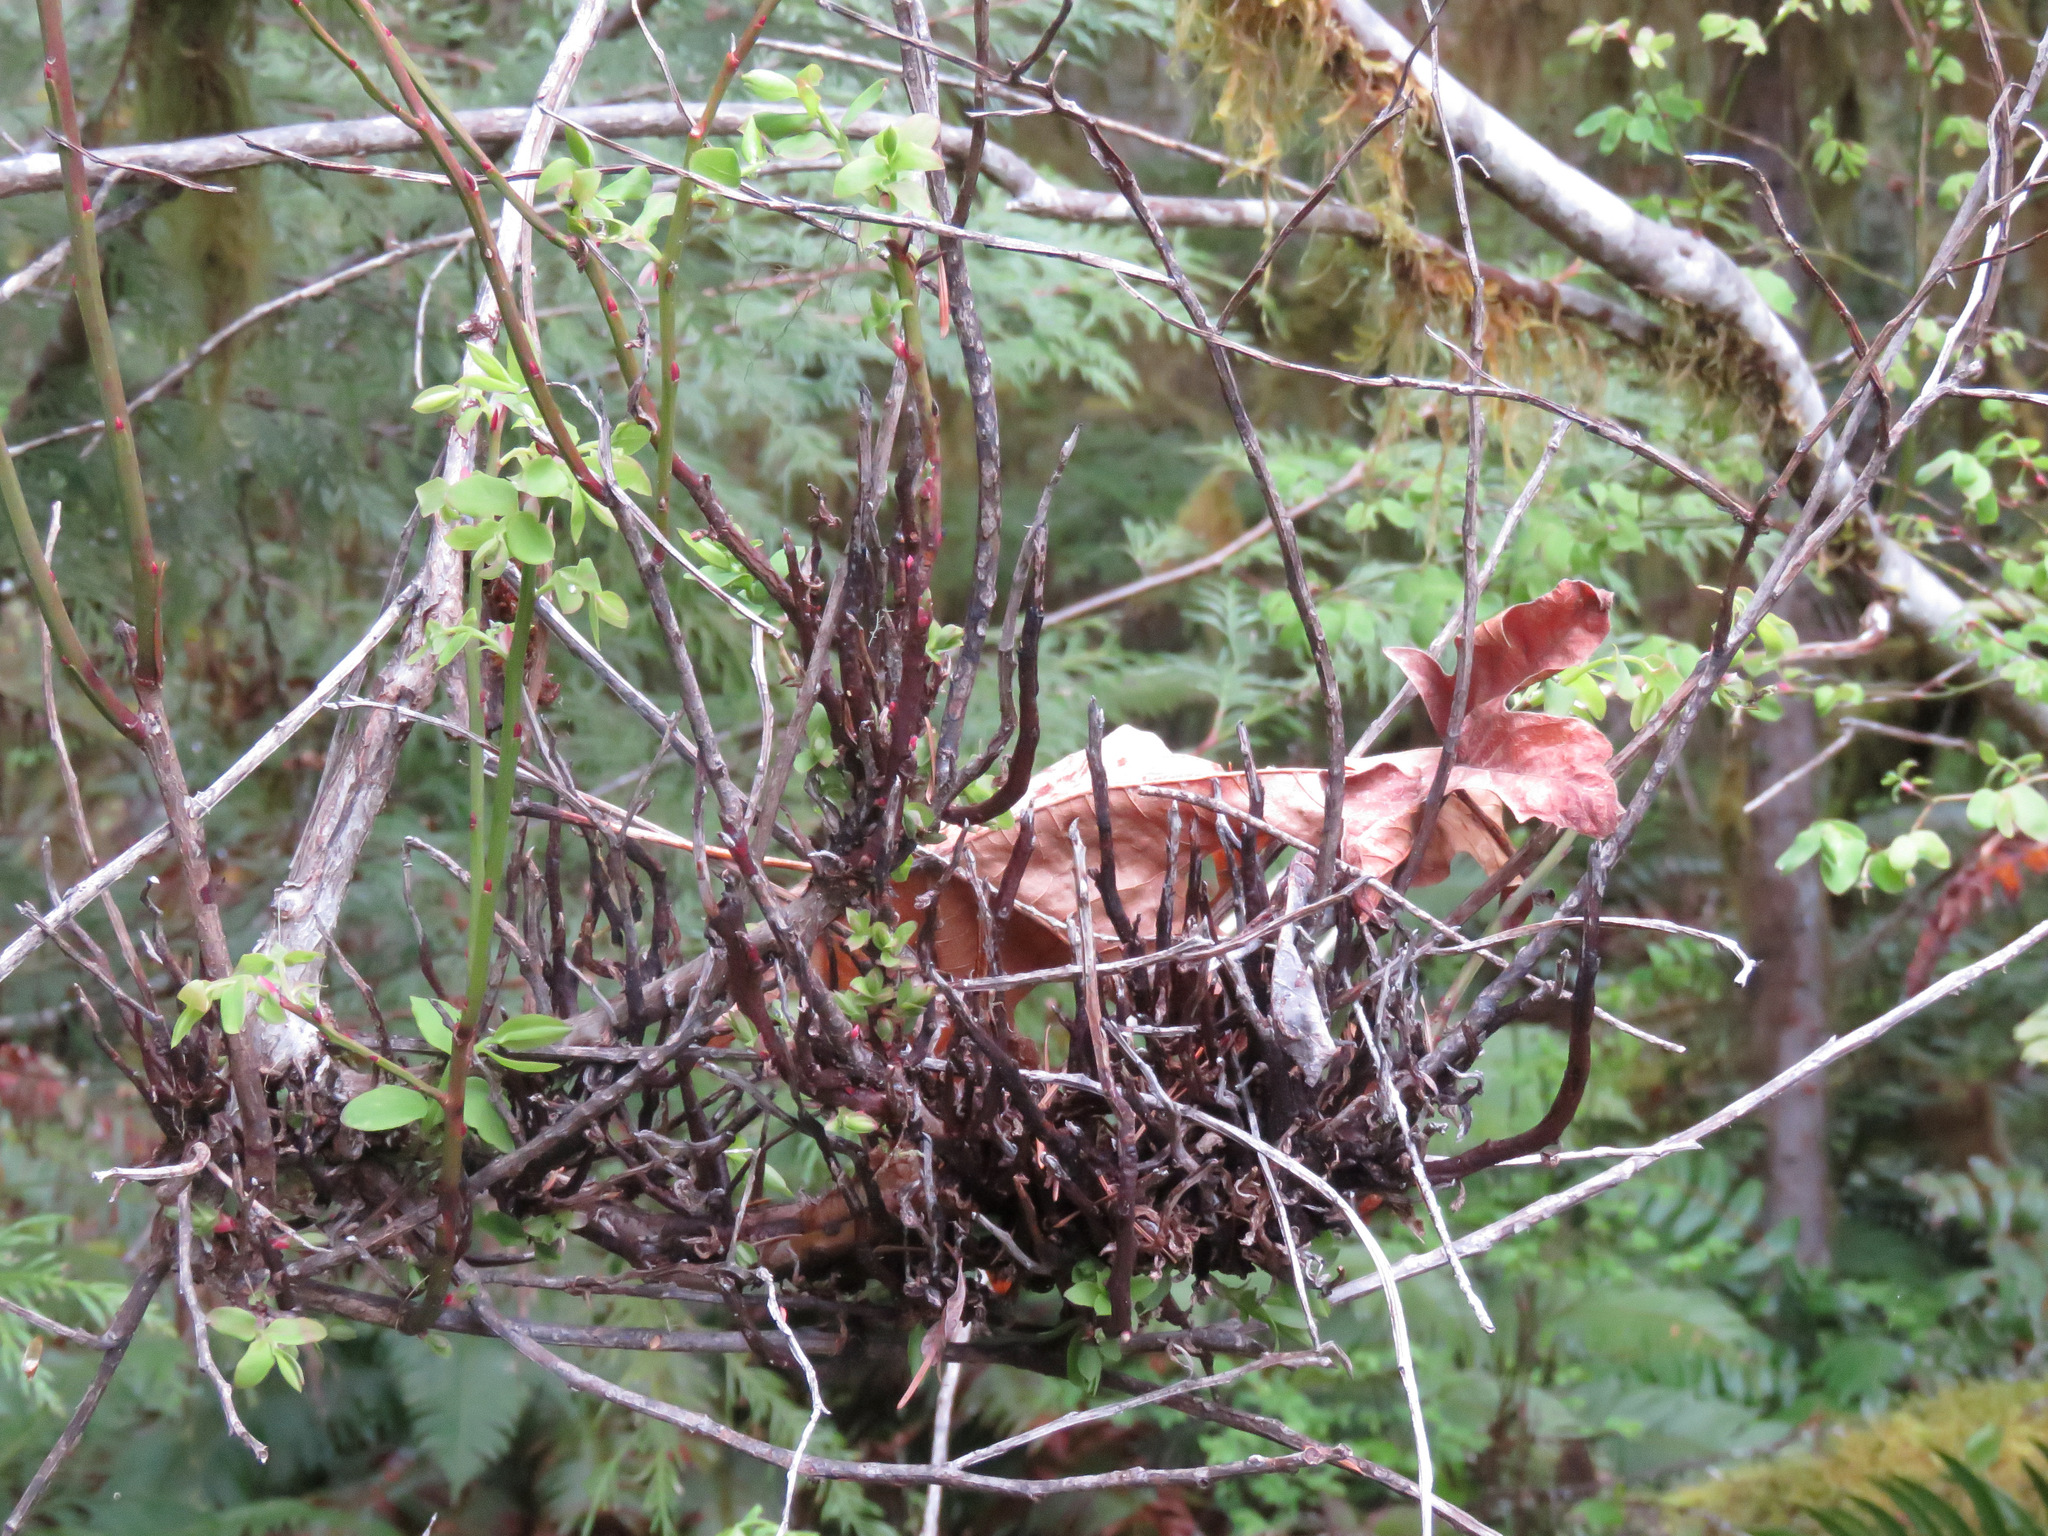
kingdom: Fungi
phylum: Basidiomycota
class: Pucciniomycetes
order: Pucciniales
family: Pucciniastraceae
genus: Calyptospora
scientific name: Calyptospora
